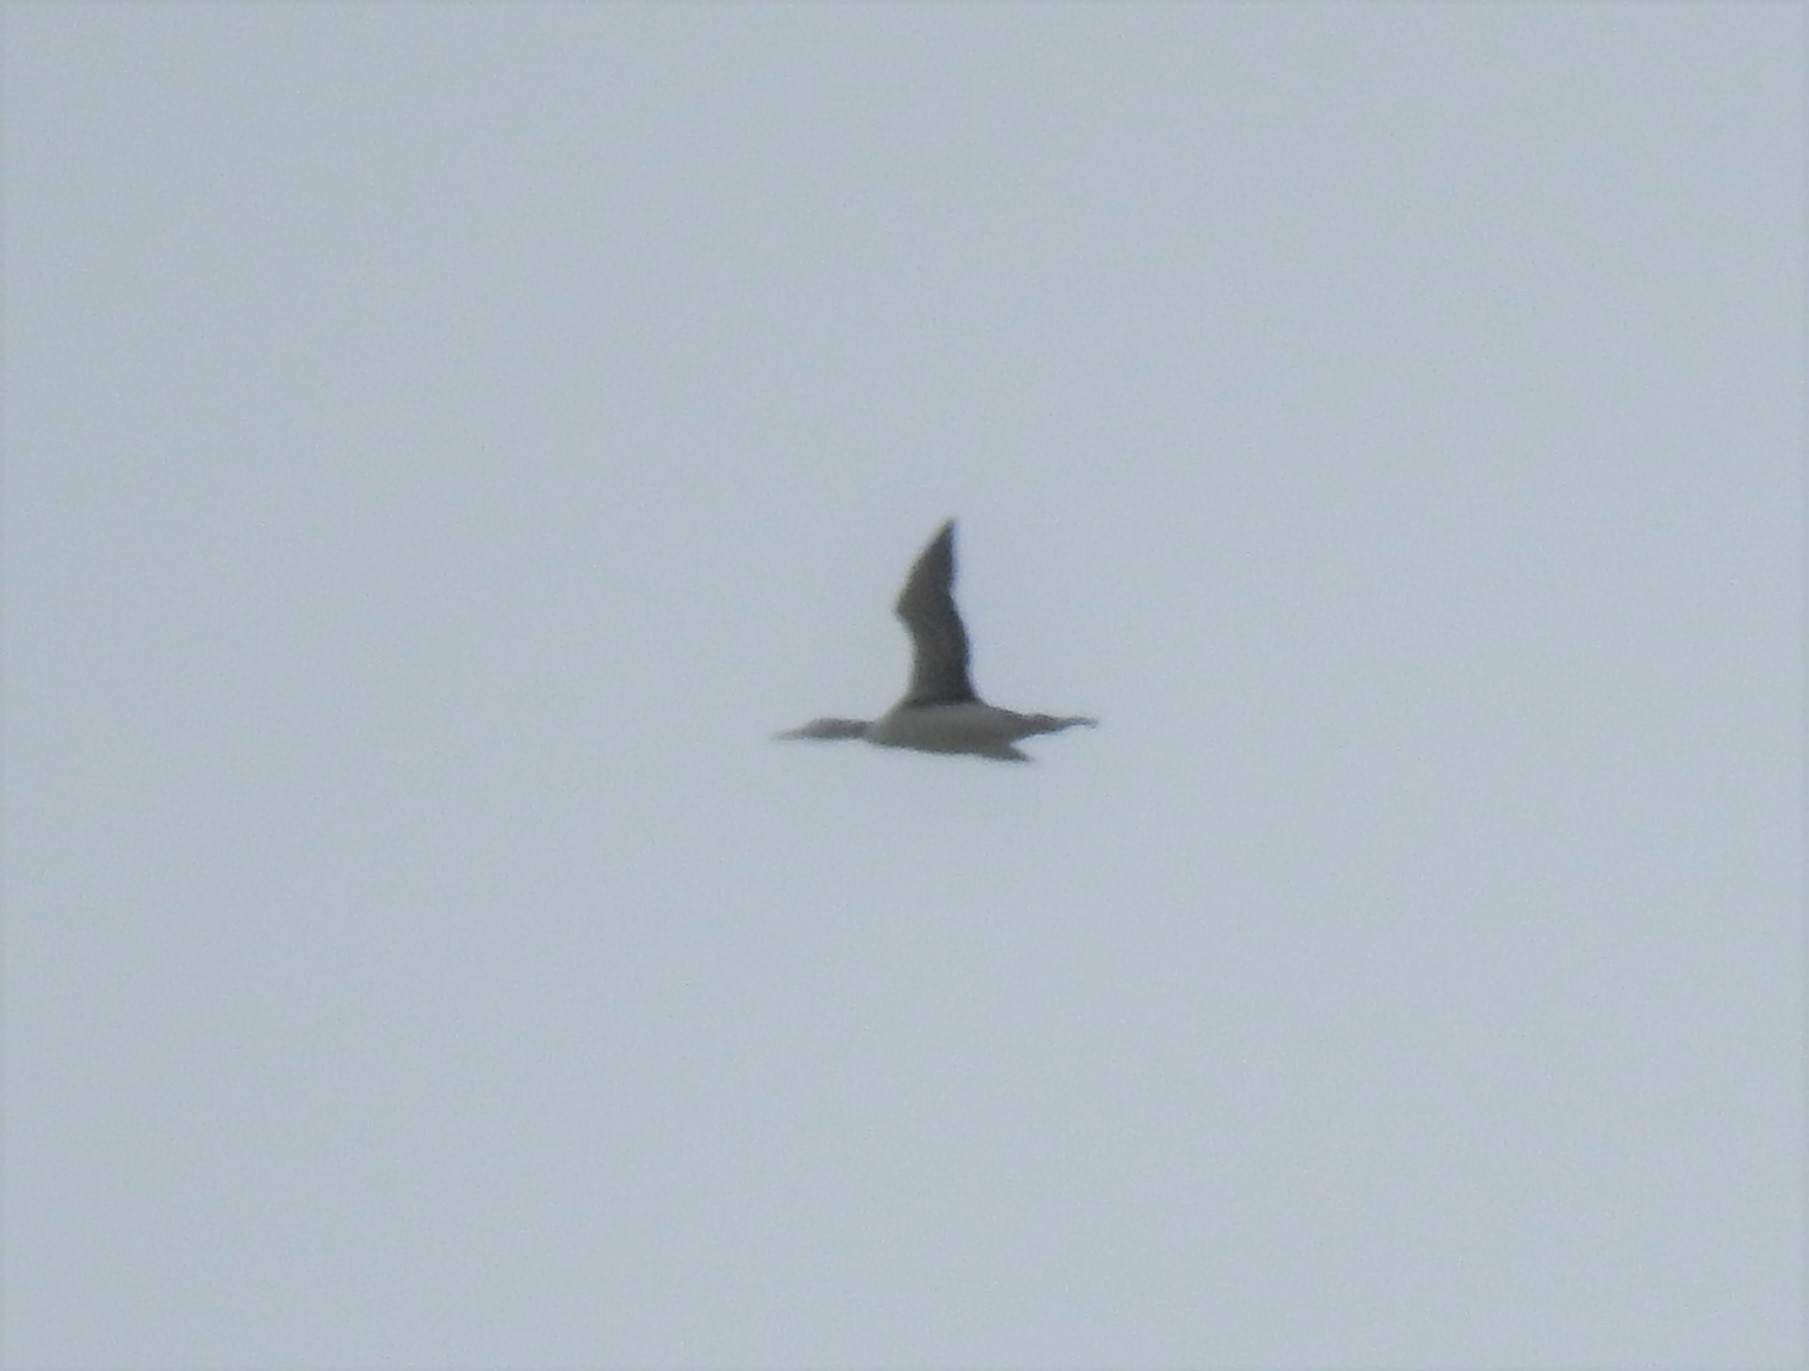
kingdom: Animalia
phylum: Chordata
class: Aves
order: Gaviiformes
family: Gaviidae
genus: Gavia
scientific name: Gavia immer
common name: Common loon
